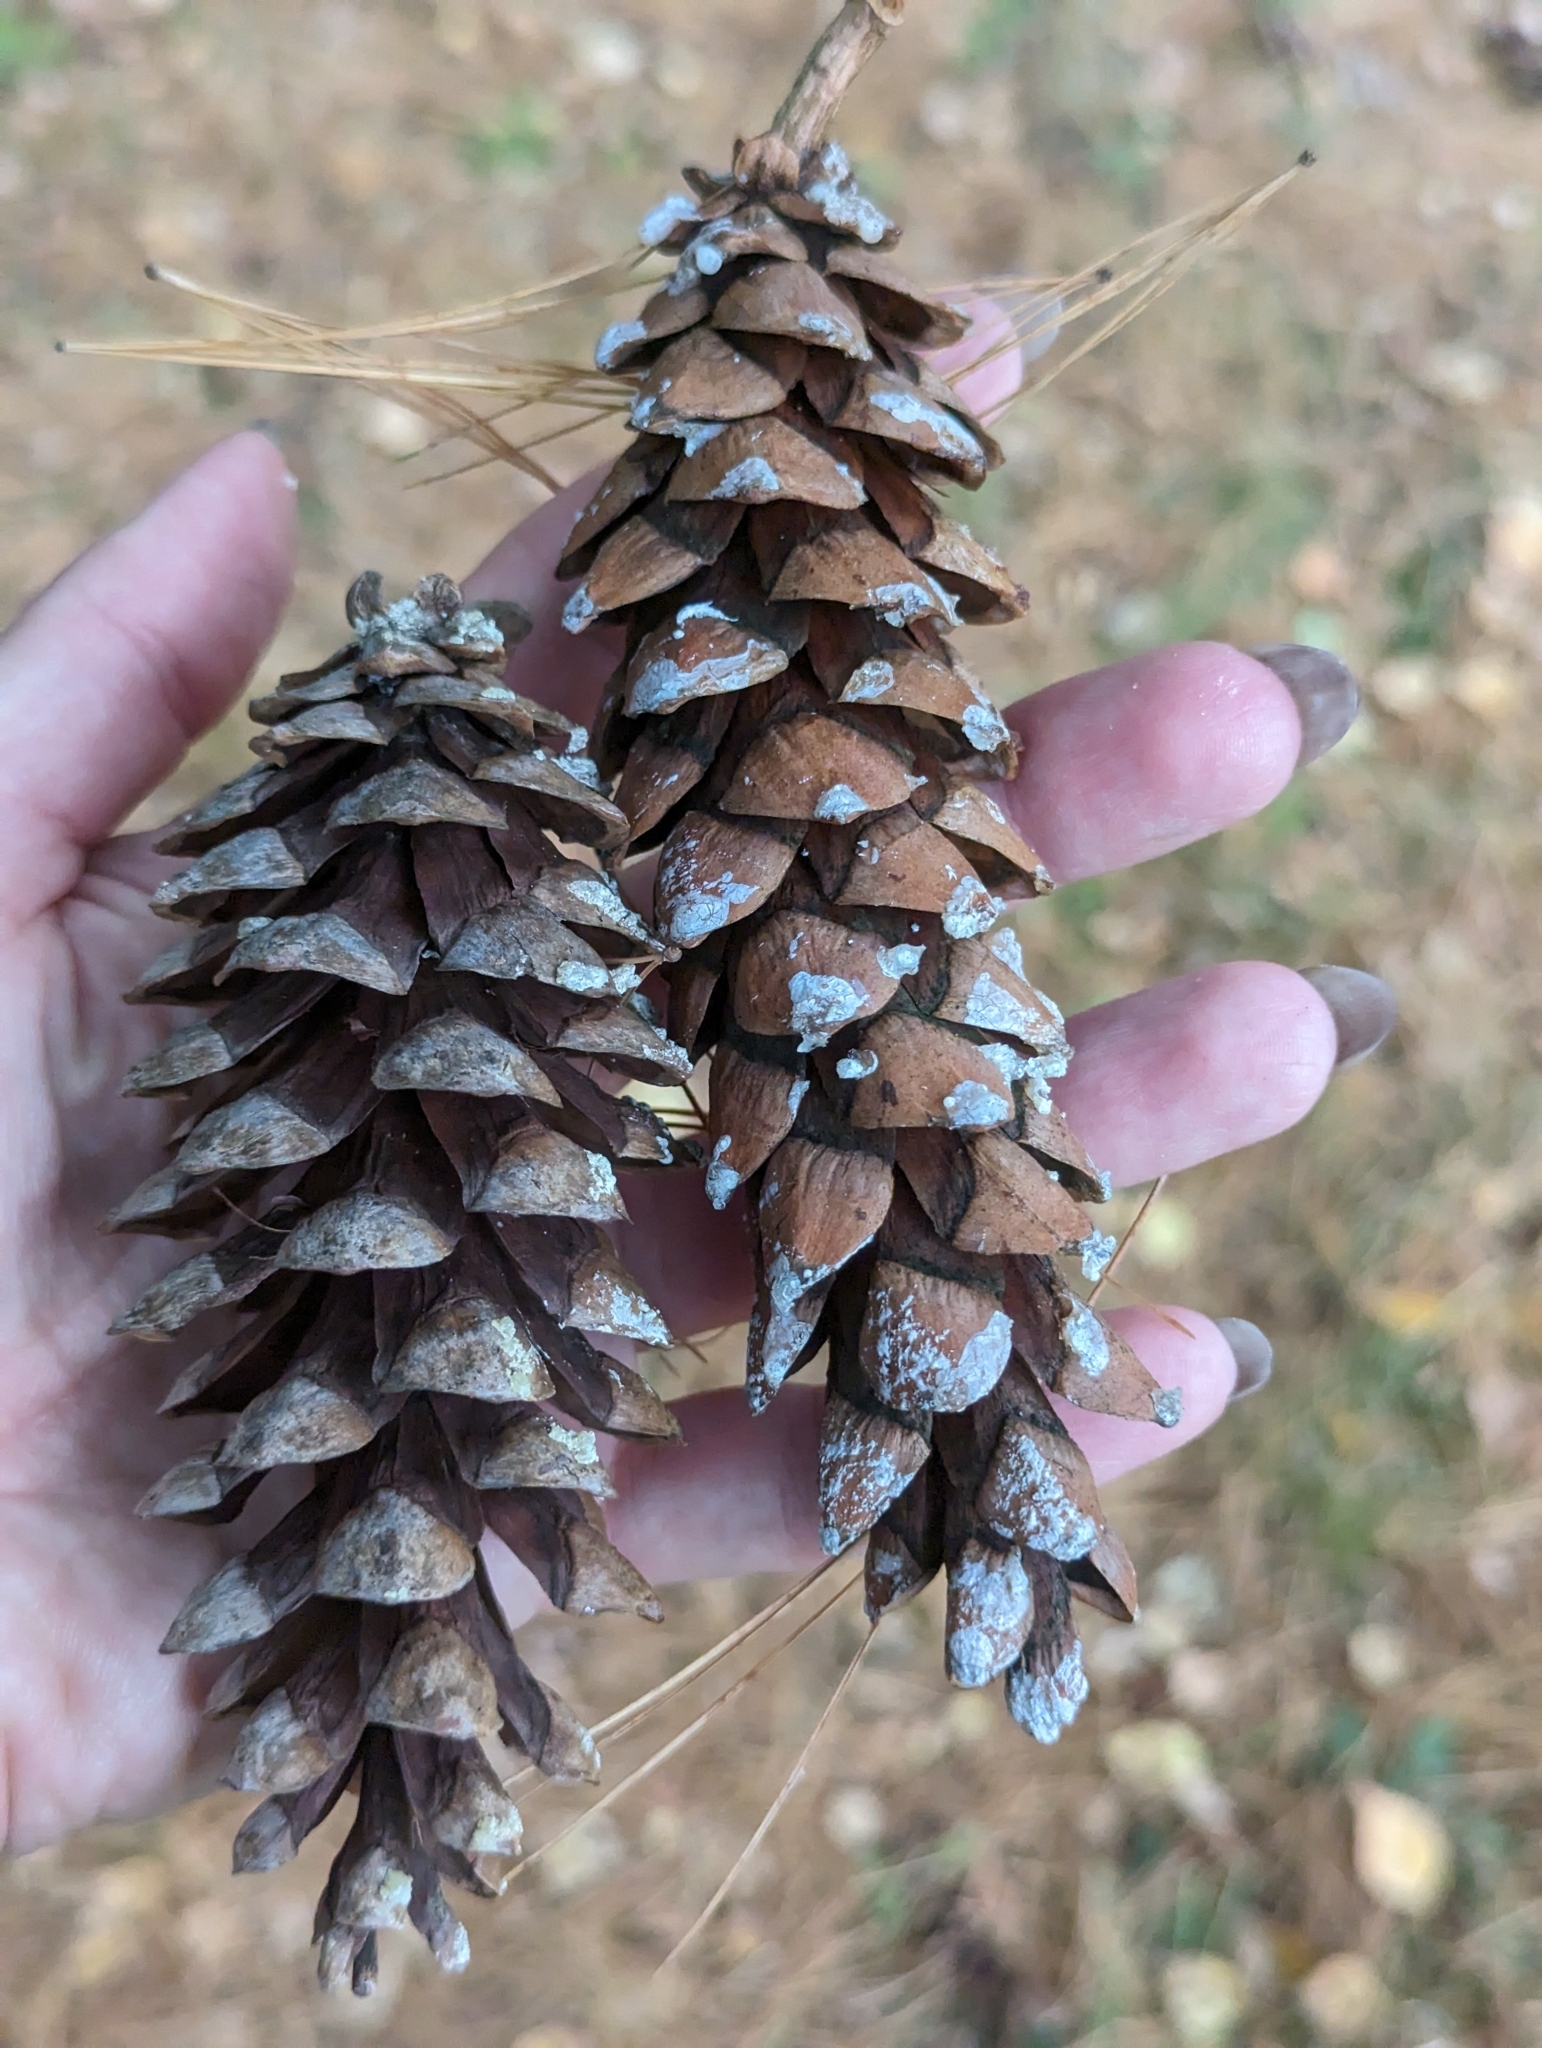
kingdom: Plantae
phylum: Tracheophyta
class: Pinopsida
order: Pinales
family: Pinaceae
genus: Pinus
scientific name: Pinus strobus
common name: Weymouth pine
